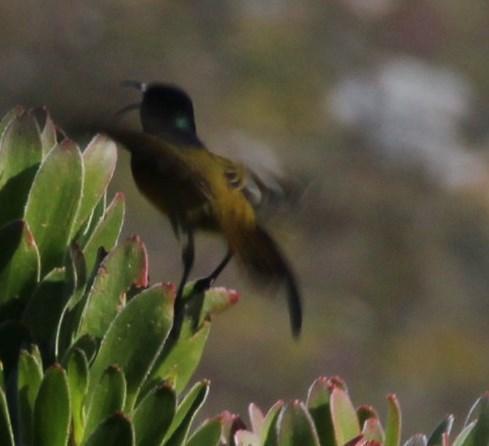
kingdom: Animalia
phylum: Chordata
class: Aves
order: Passeriformes
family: Nectariniidae
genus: Anthobaphes
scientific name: Anthobaphes violacea
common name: Orange-breasted sunbird
